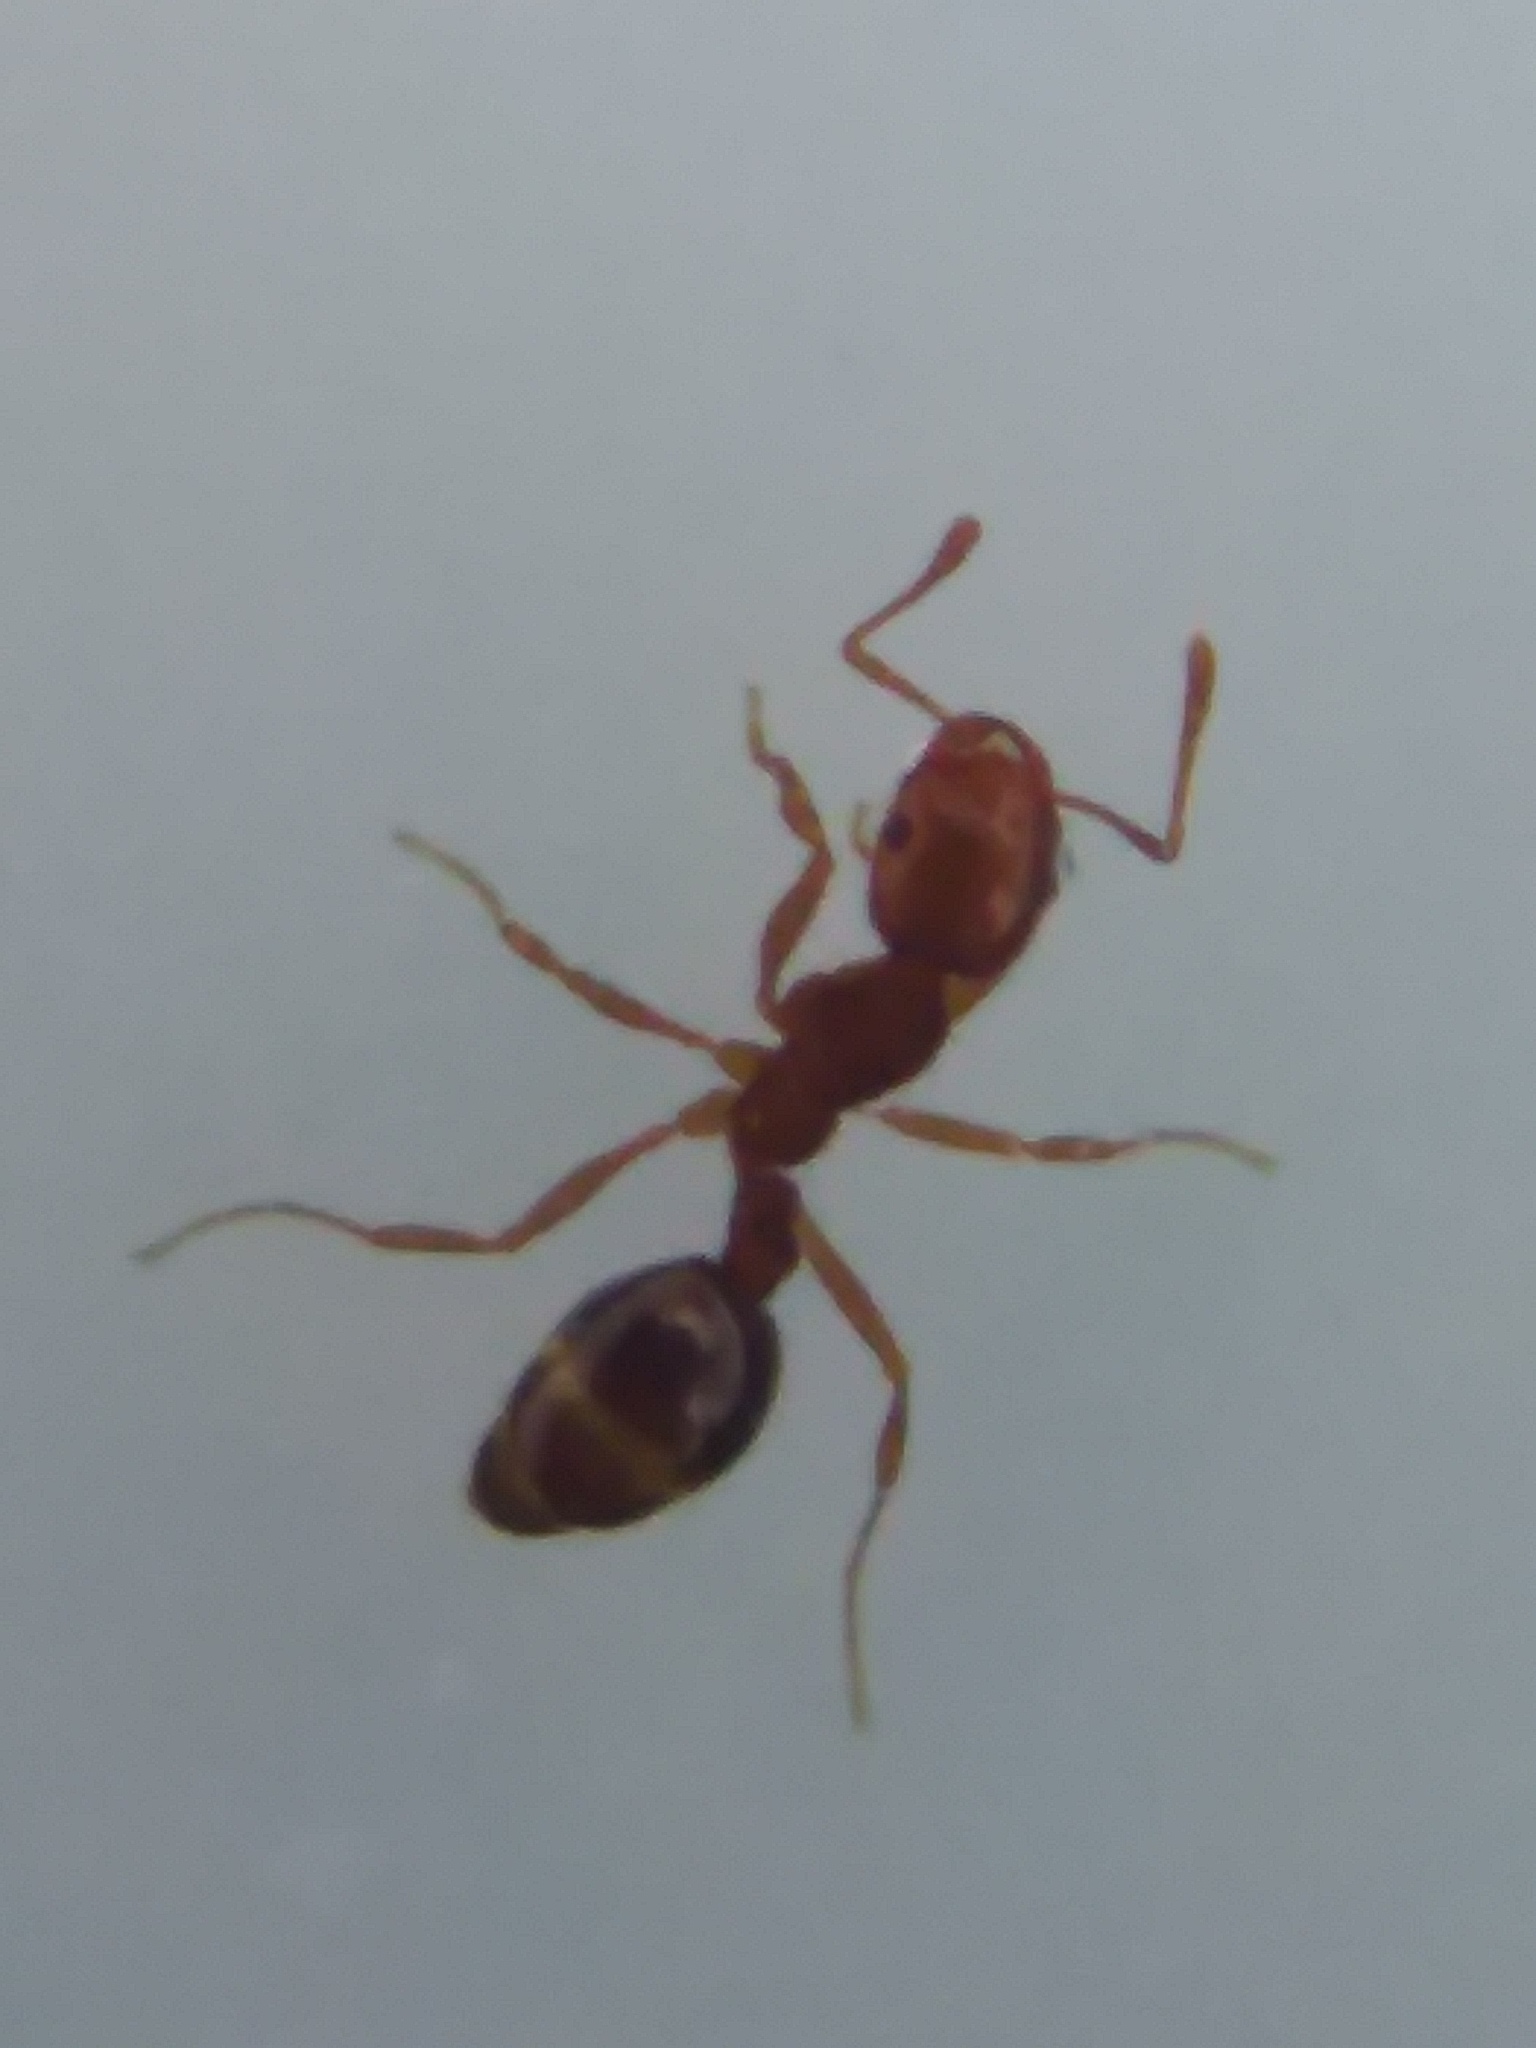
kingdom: Animalia
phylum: Arthropoda
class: Insecta
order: Hymenoptera
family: Formicidae
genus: Solenopsis
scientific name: Solenopsis invicta
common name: Red imported fire ant
